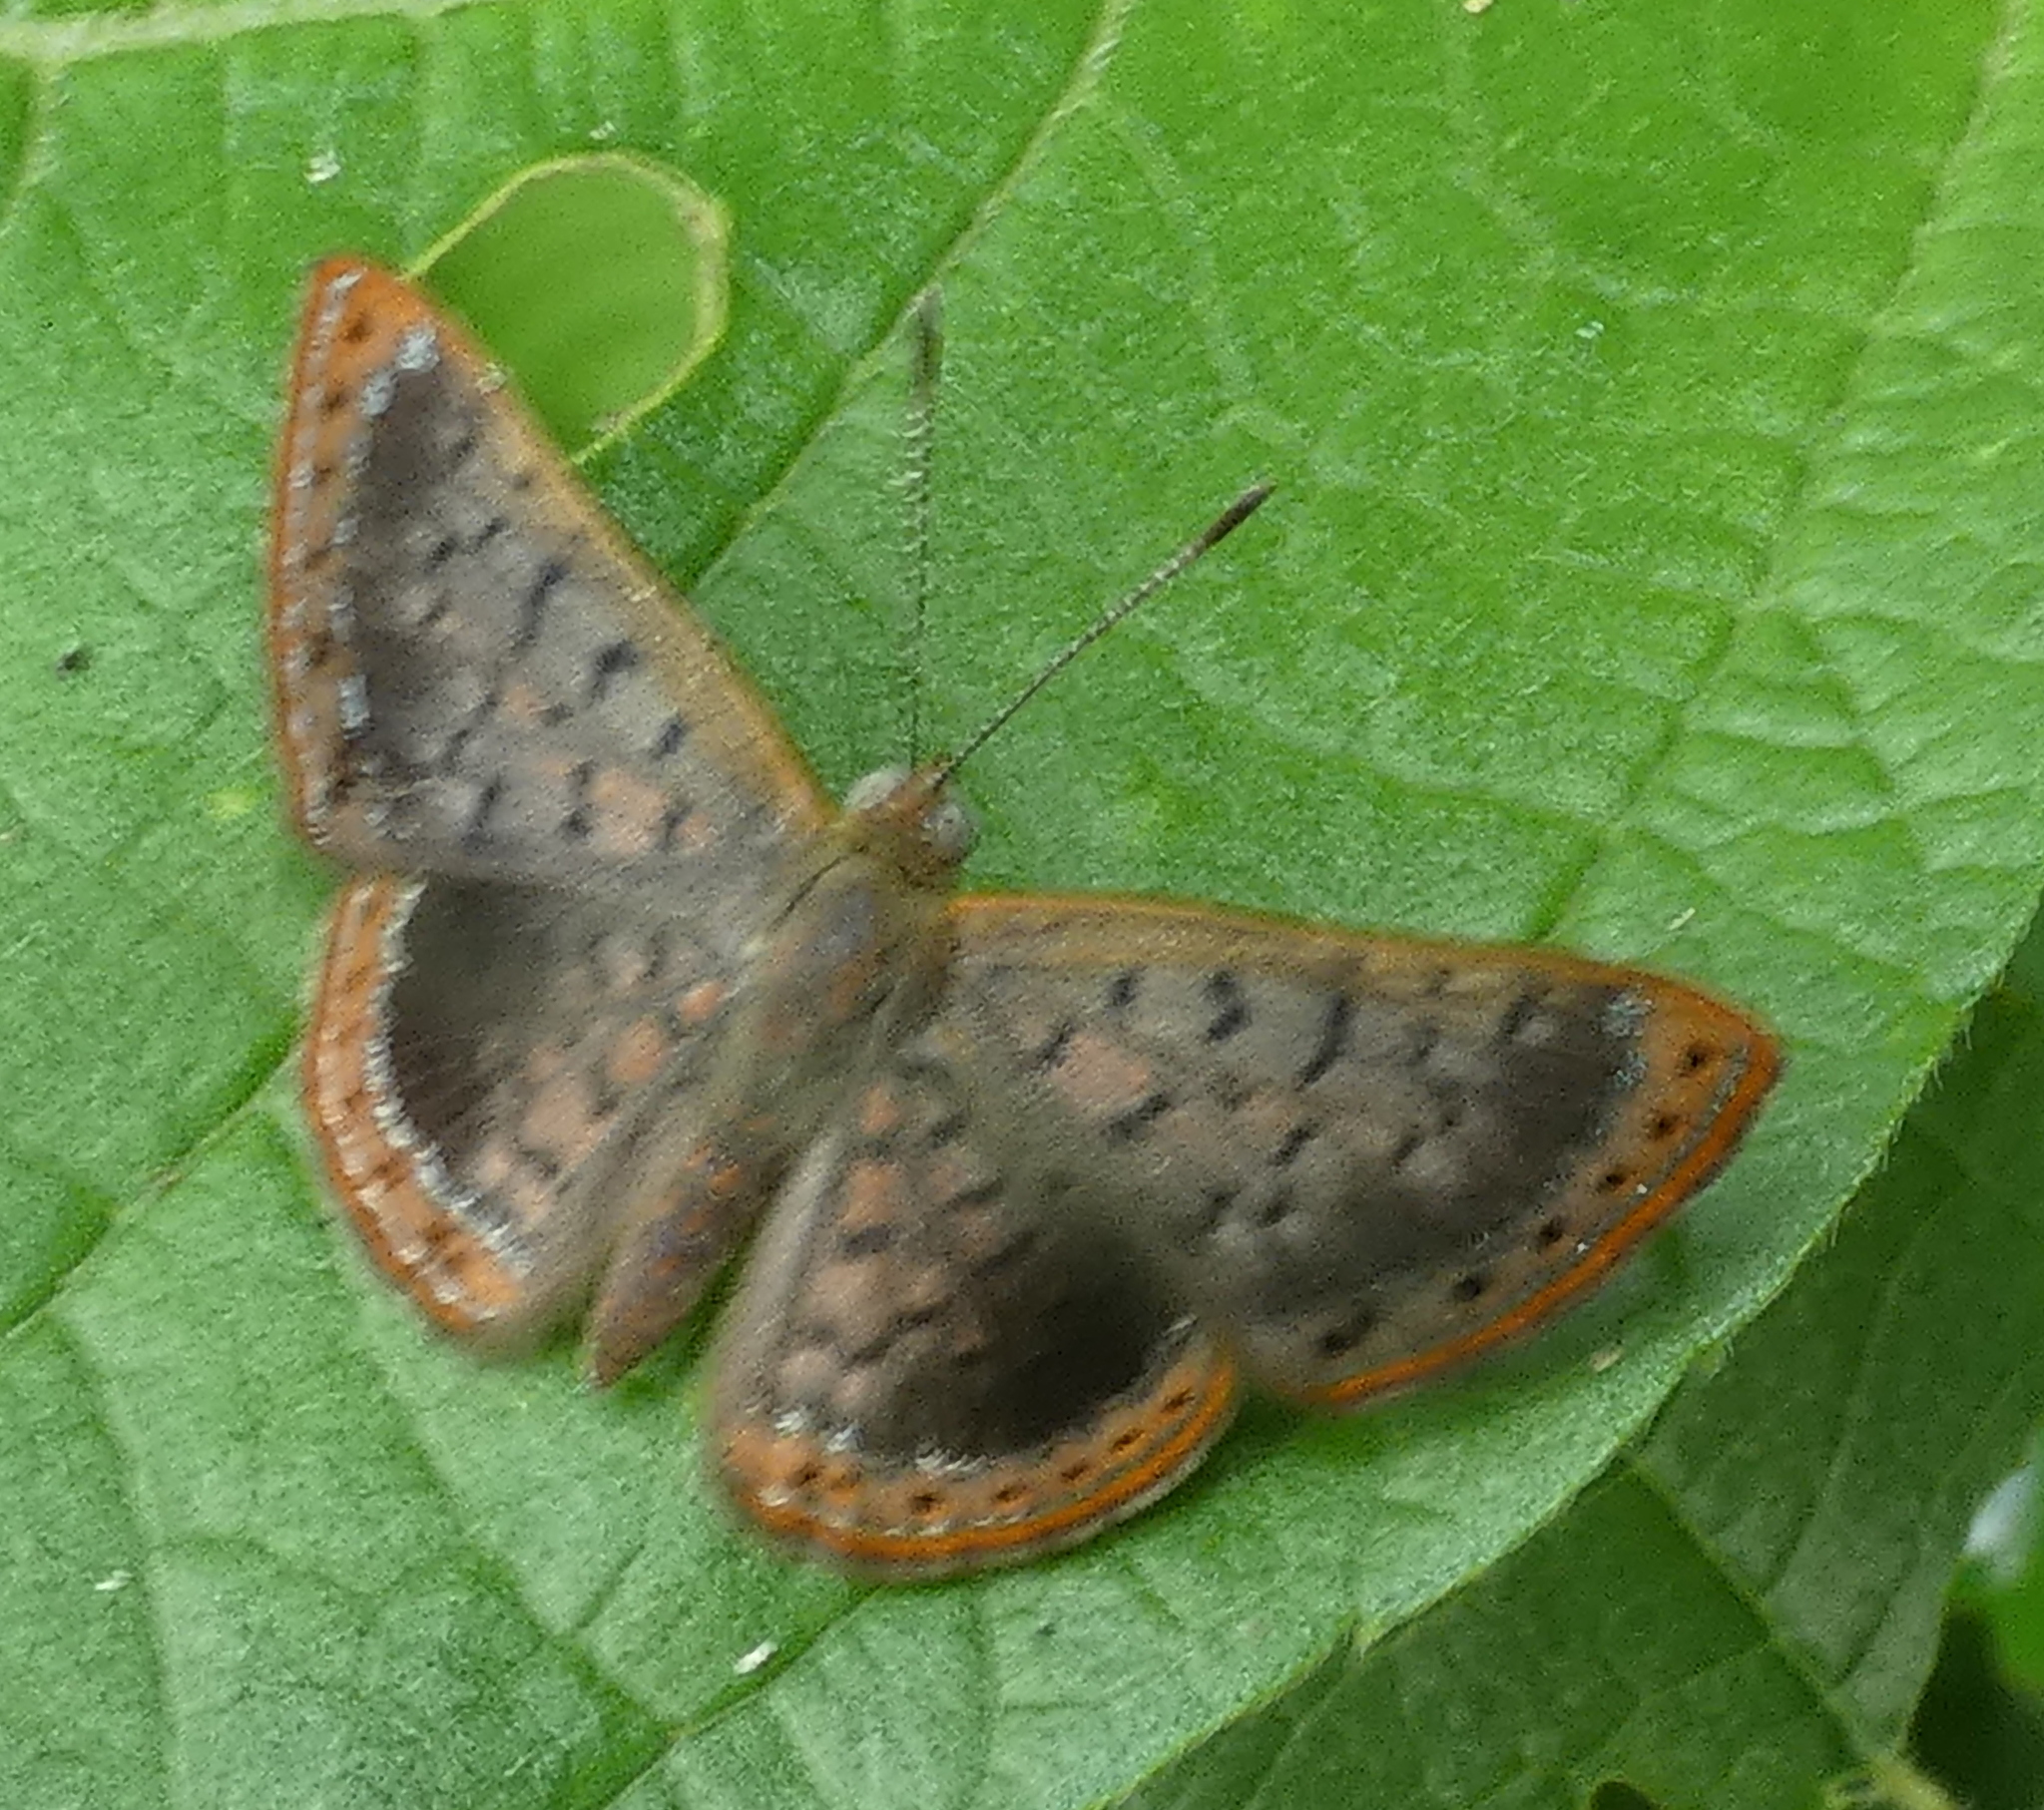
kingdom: Animalia
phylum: Arthropoda
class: Insecta
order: Lepidoptera
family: Riodinidae
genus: Dachetola
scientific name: Dachetola
